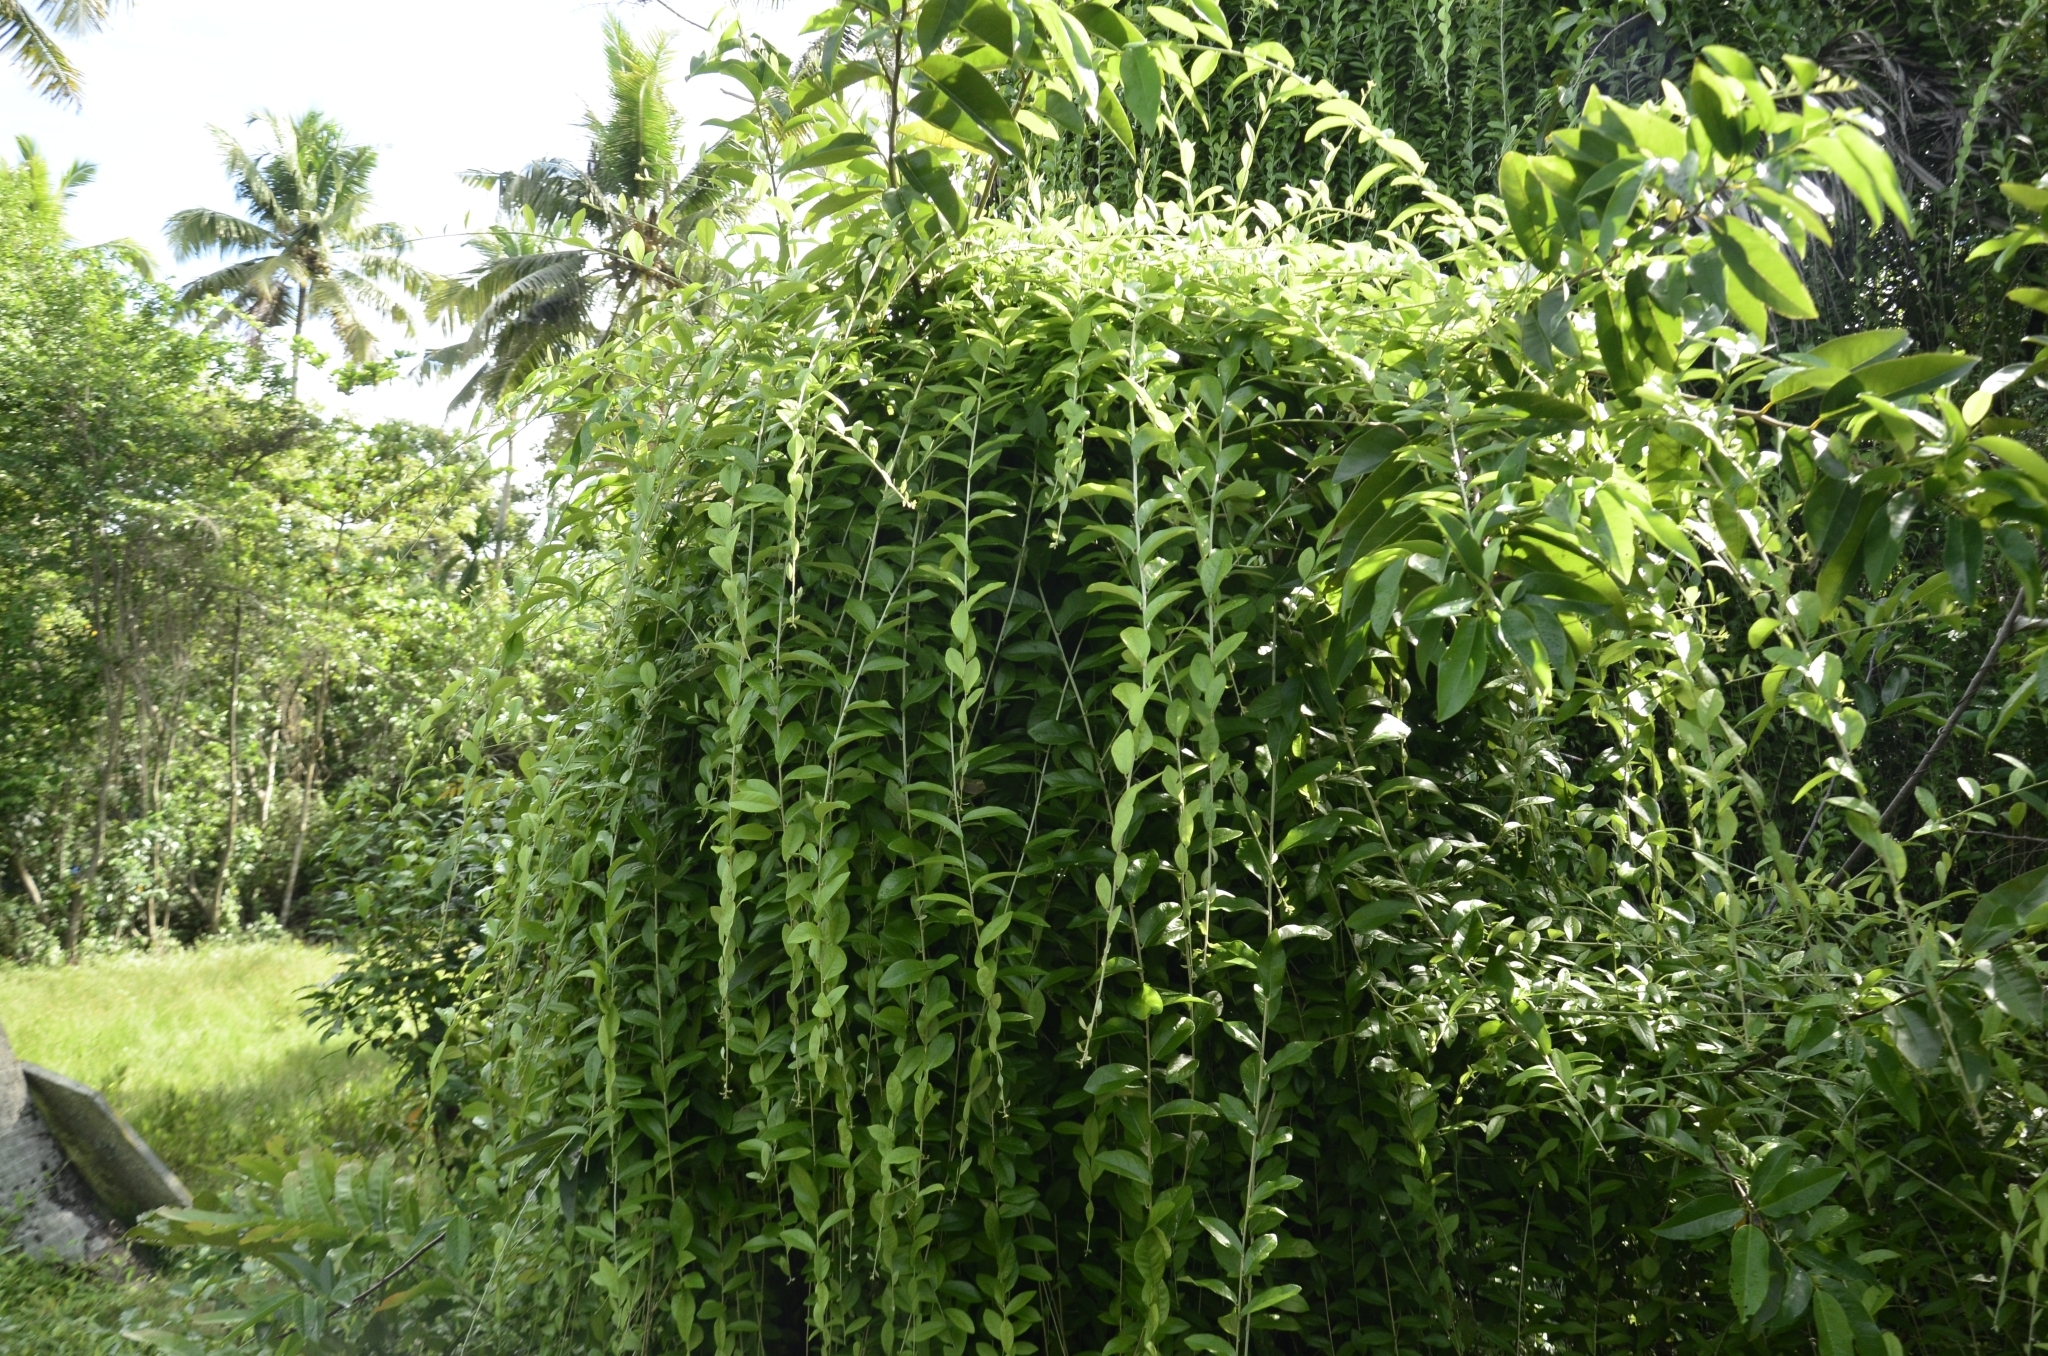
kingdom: Plantae
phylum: Tracheophyta
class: Magnoliopsida
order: Asterales
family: Asteraceae
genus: Tarlmounia
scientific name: Tarlmounia elliptica
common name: Kheua sa lot
